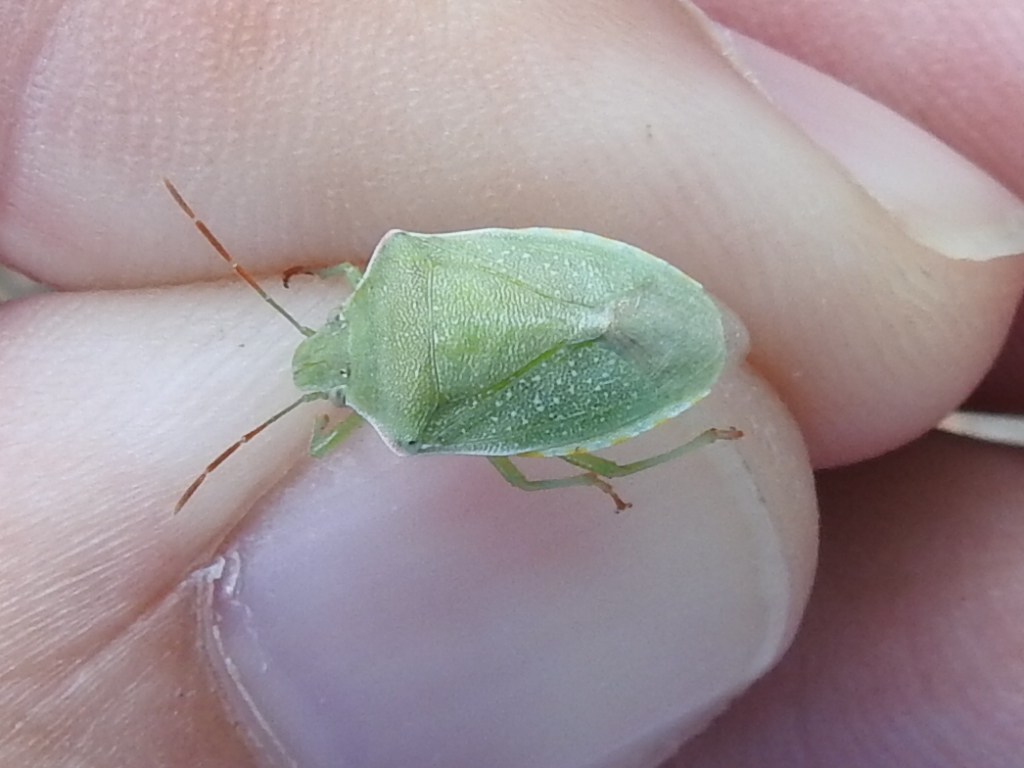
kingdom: Animalia
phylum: Arthropoda
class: Insecta
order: Hemiptera
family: Pentatomidae
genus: Thyanta
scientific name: Thyanta accerra
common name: Stink bug
